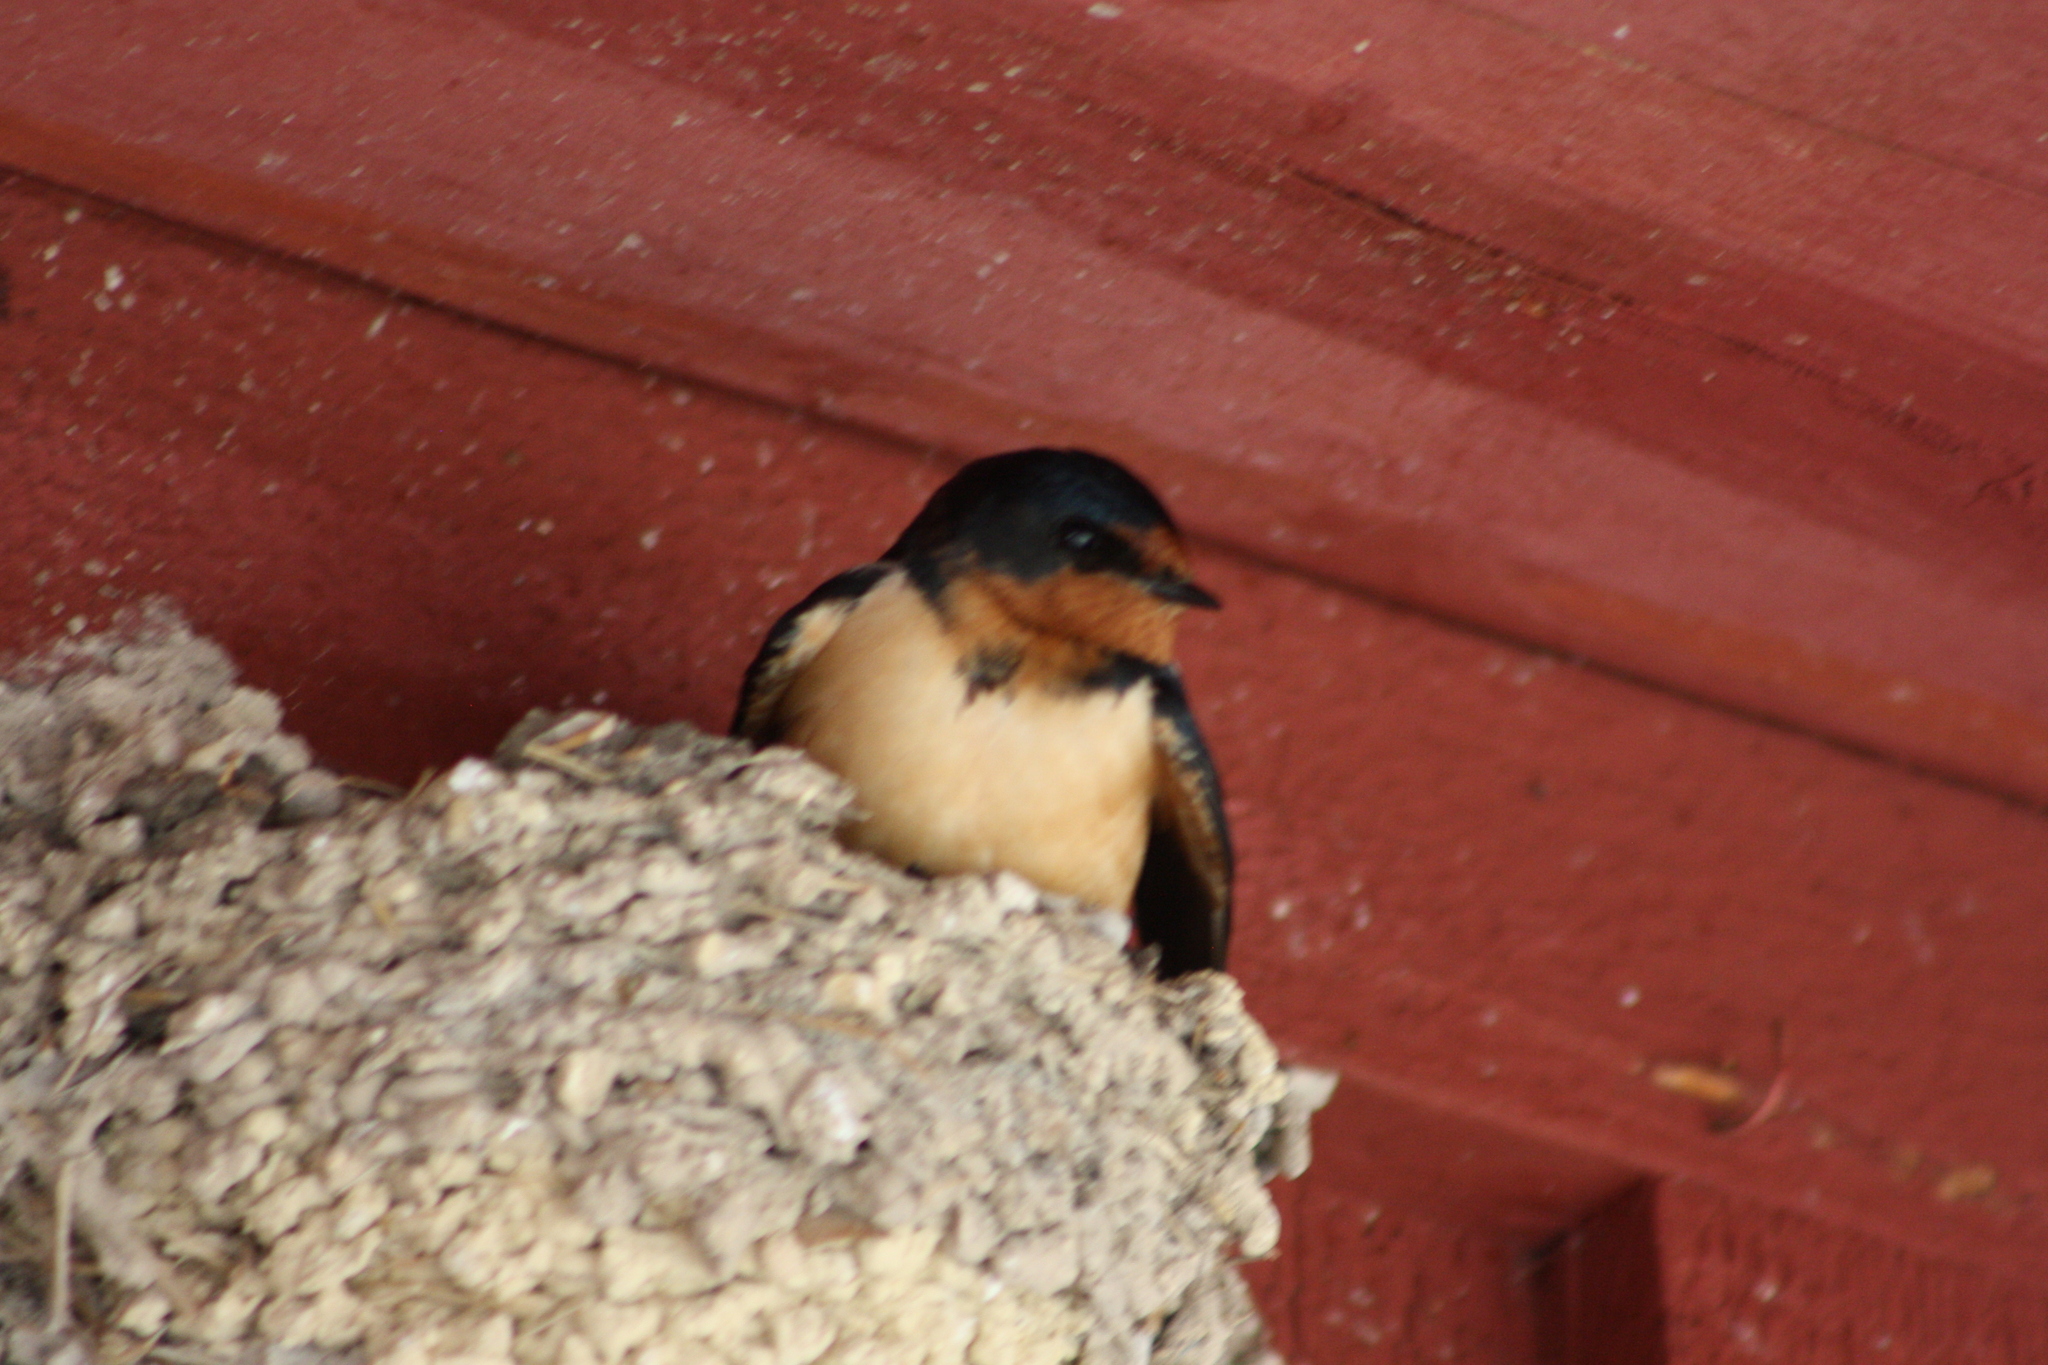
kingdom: Animalia
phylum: Chordata
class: Aves
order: Passeriformes
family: Hirundinidae
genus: Hirundo
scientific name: Hirundo rustica
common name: Barn swallow
